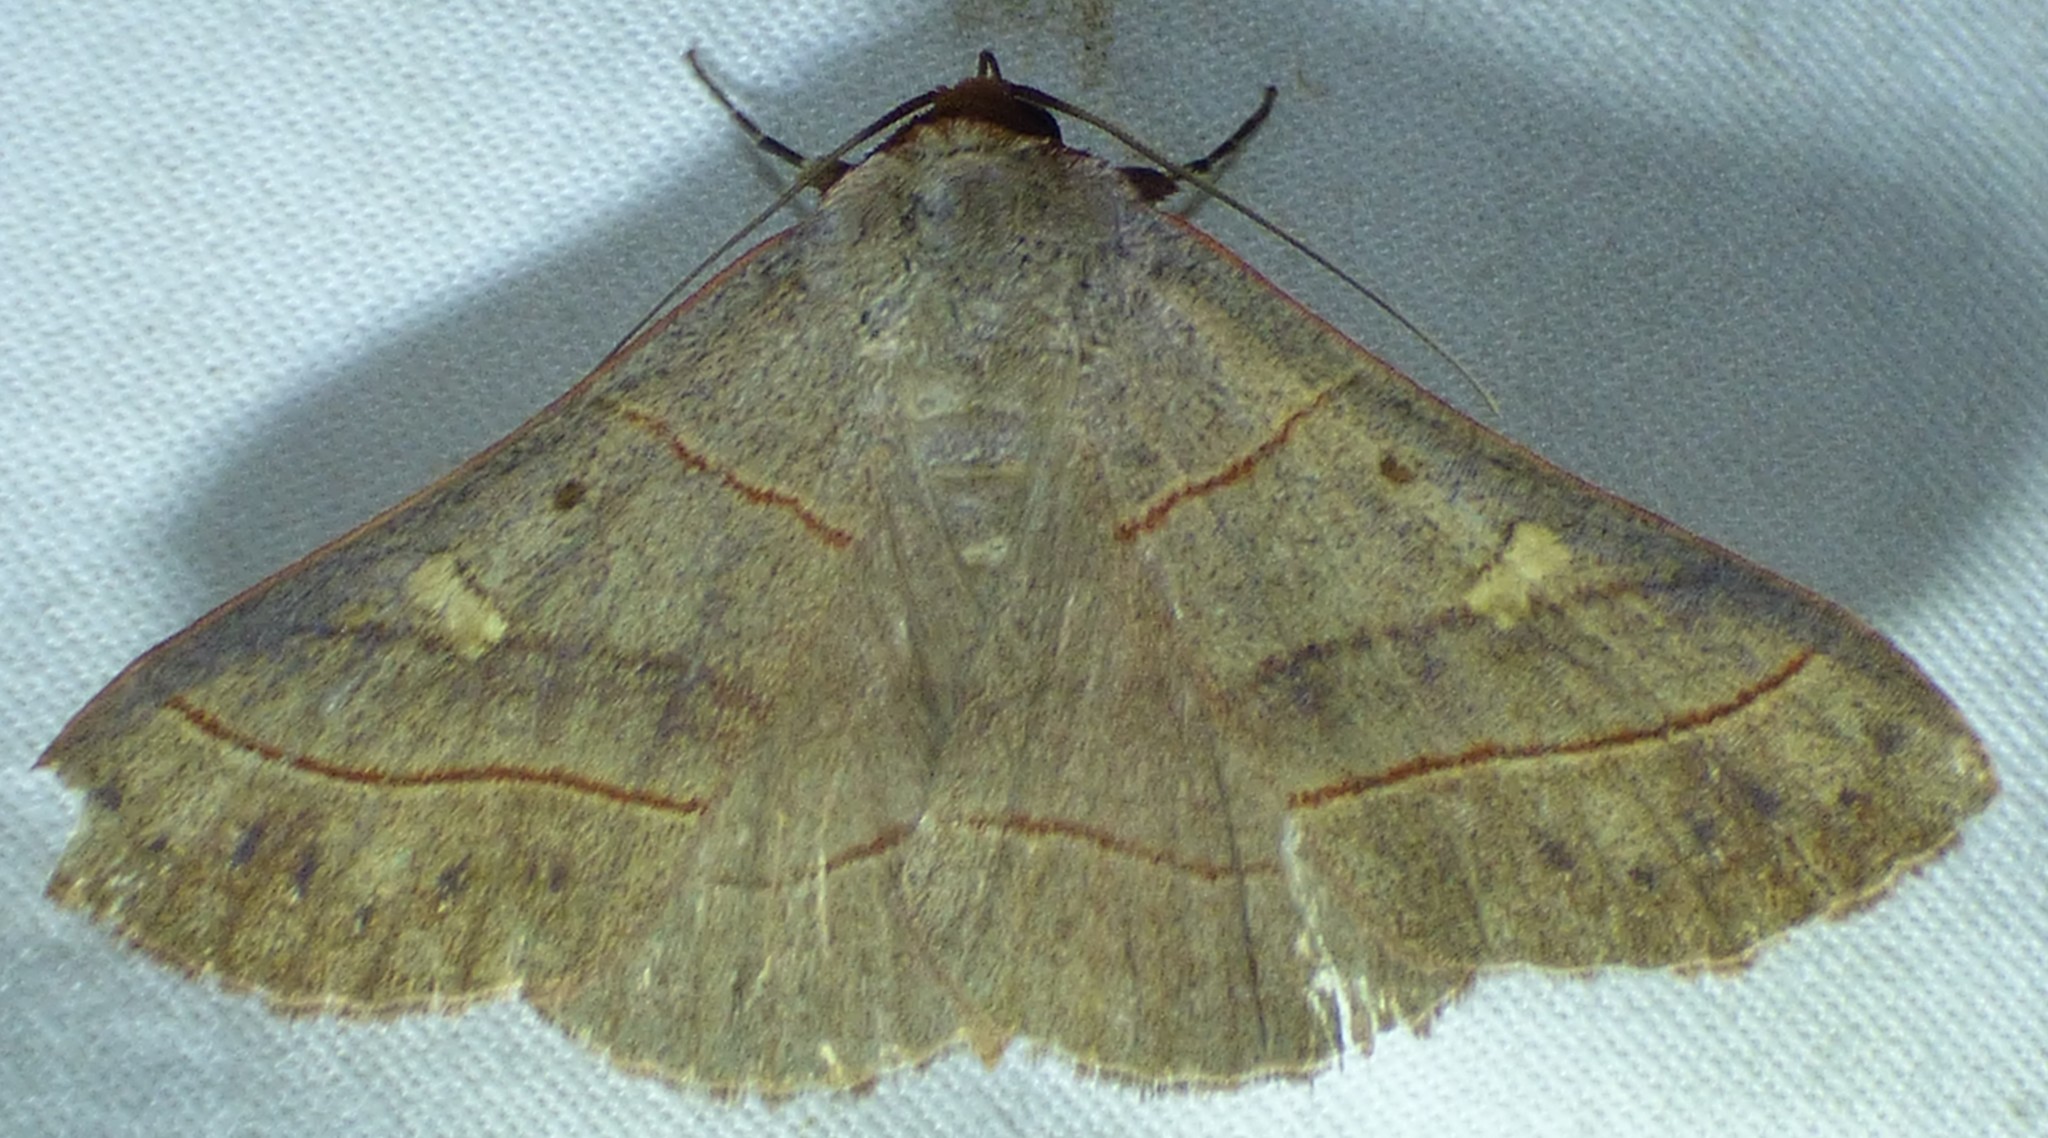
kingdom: Animalia
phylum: Arthropoda
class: Insecta
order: Lepidoptera
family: Erebidae
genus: Panopoda
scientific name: Panopoda rufimargo
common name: Red-lined panopoda moth
